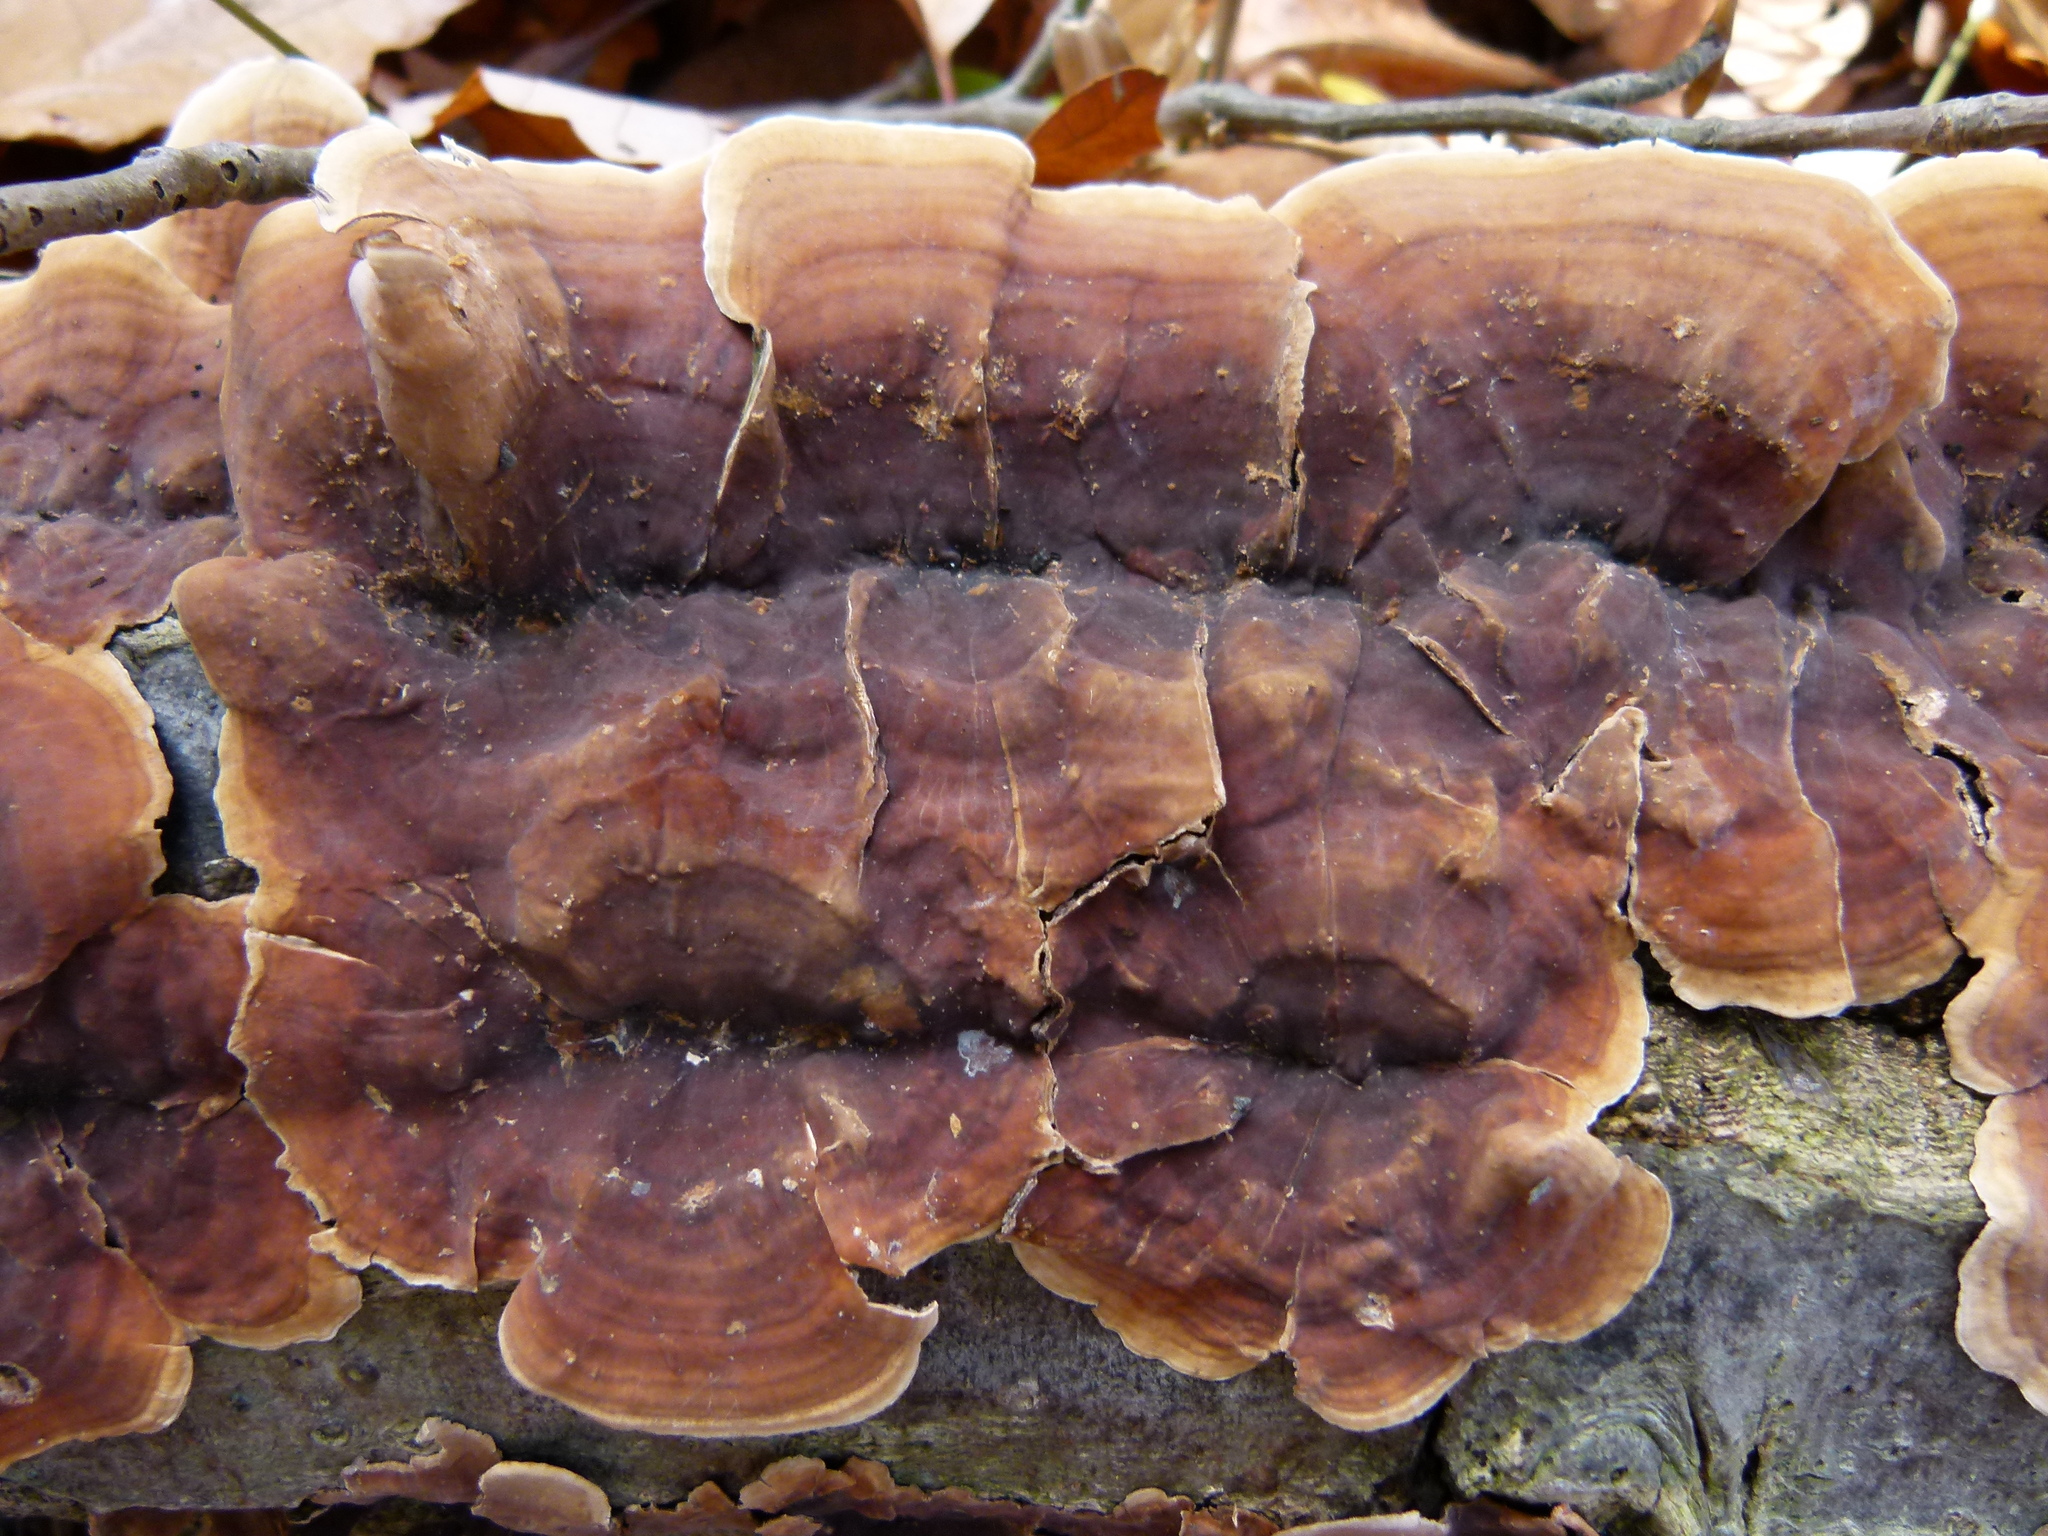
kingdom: Fungi
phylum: Basidiomycota
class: Agaricomycetes
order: Russulales
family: Stereaceae
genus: Stereum
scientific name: Stereum ostrea
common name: False turkeytail
